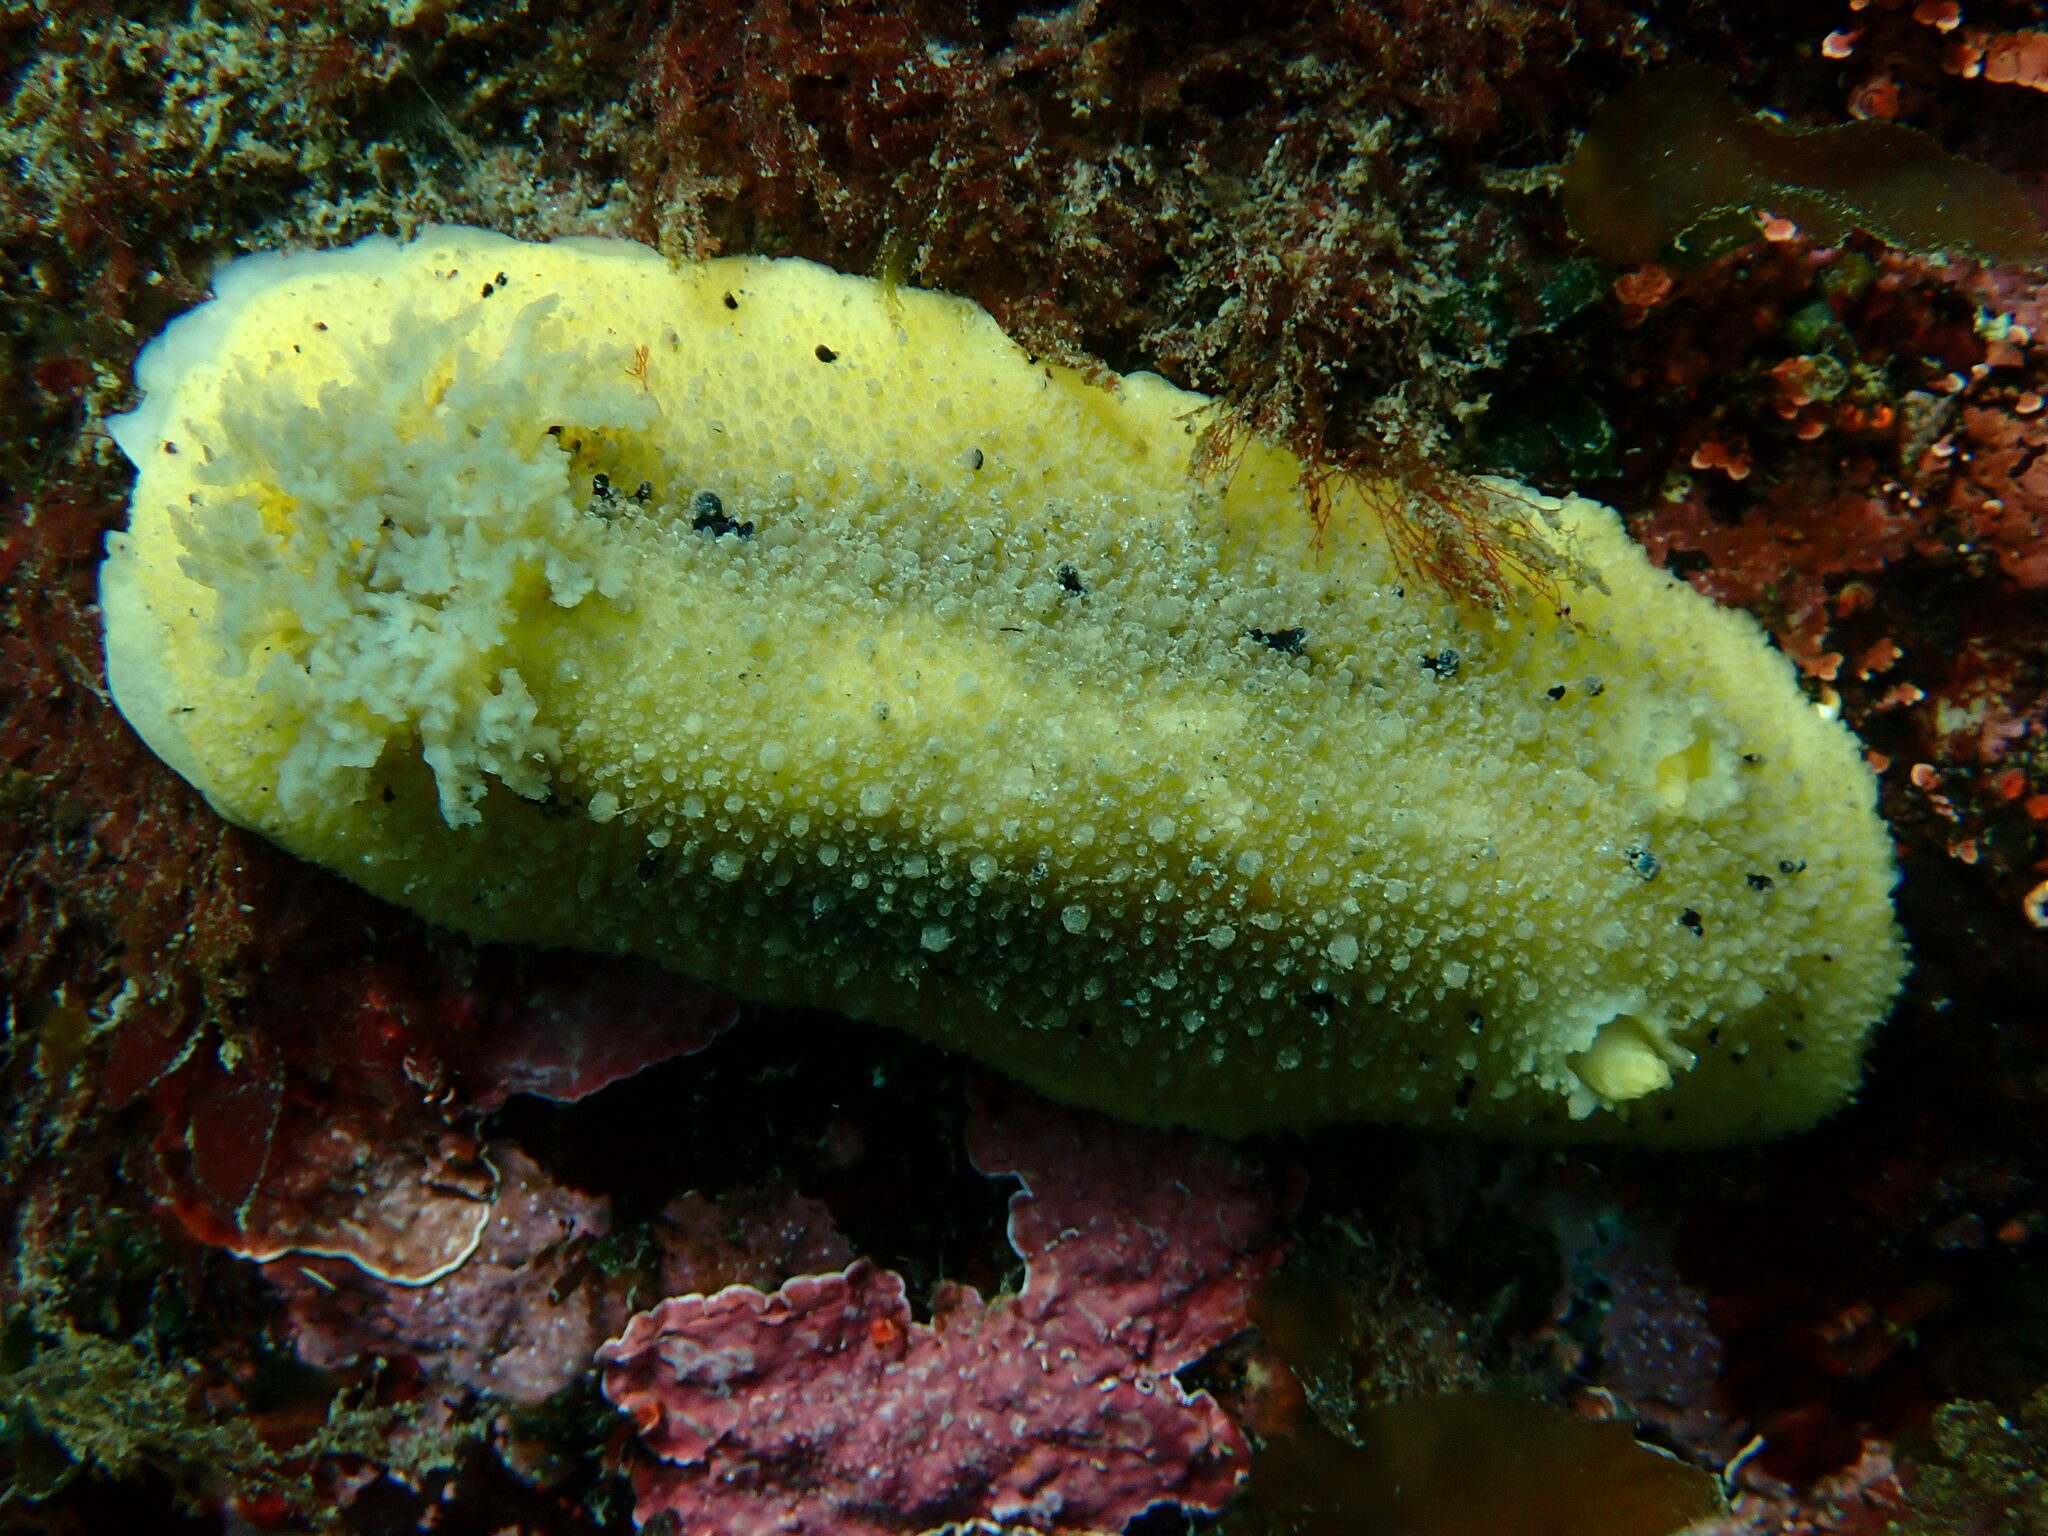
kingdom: Animalia
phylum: Mollusca
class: Gastropoda
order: Nudibranchia
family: Dorididae
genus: Doris
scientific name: Doris montereyensis
